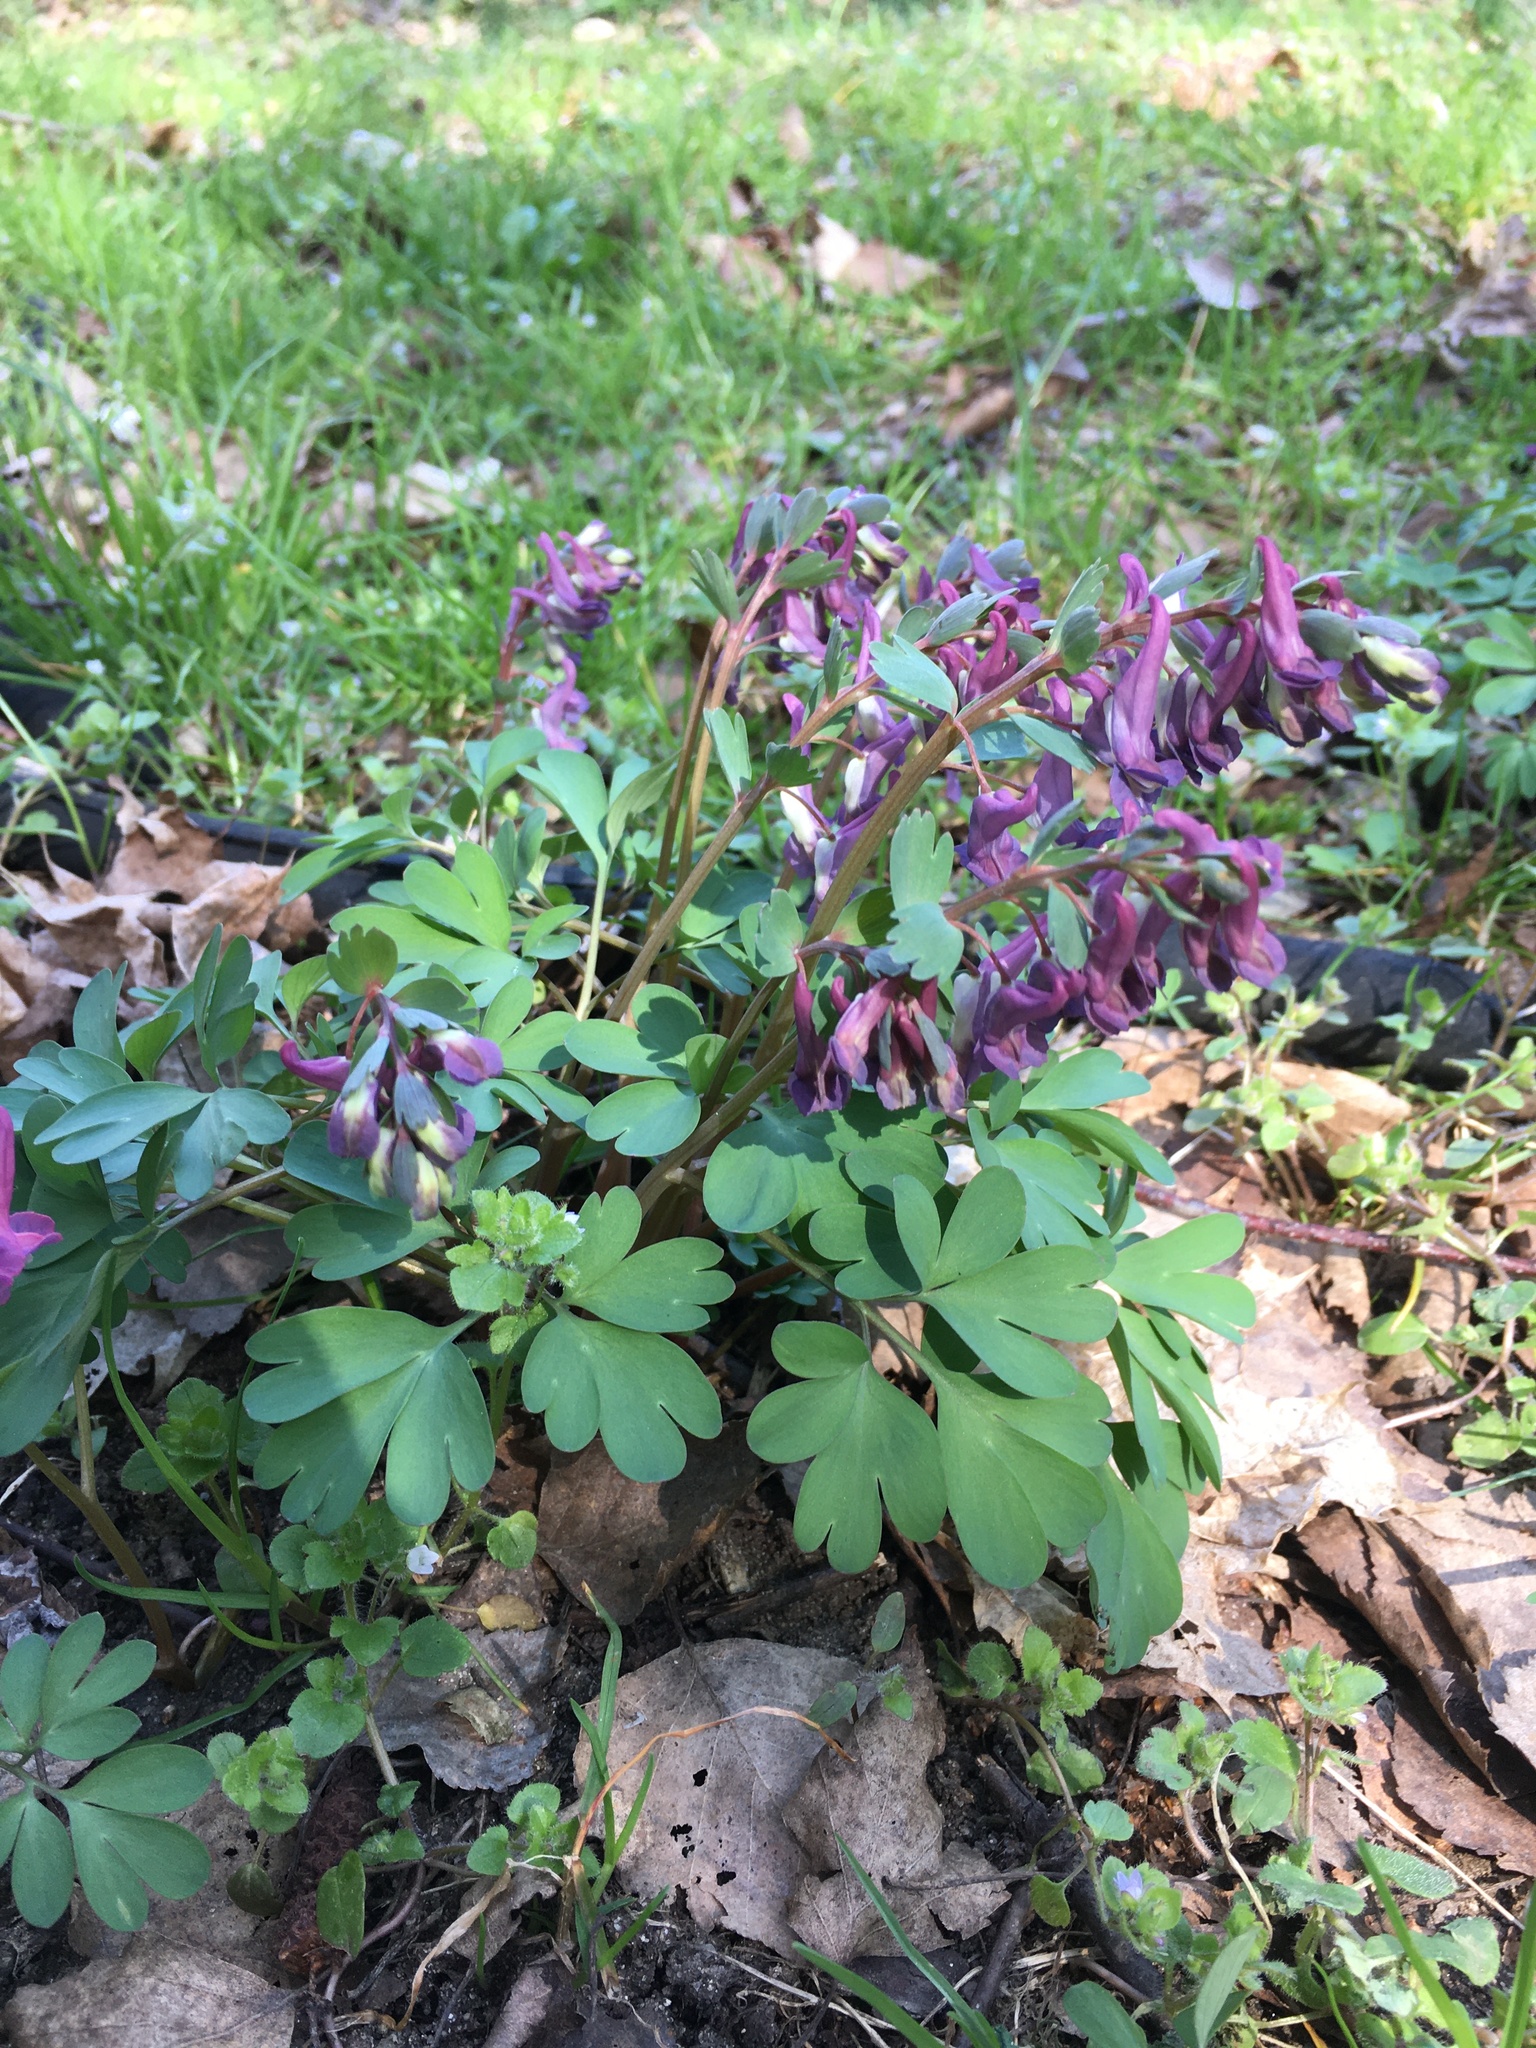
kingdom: Plantae
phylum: Tracheophyta
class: Magnoliopsida
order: Ranunculales
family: Papaveraceae
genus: Corydalis
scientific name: Corydalis solida
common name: Bird-in-a-bush
